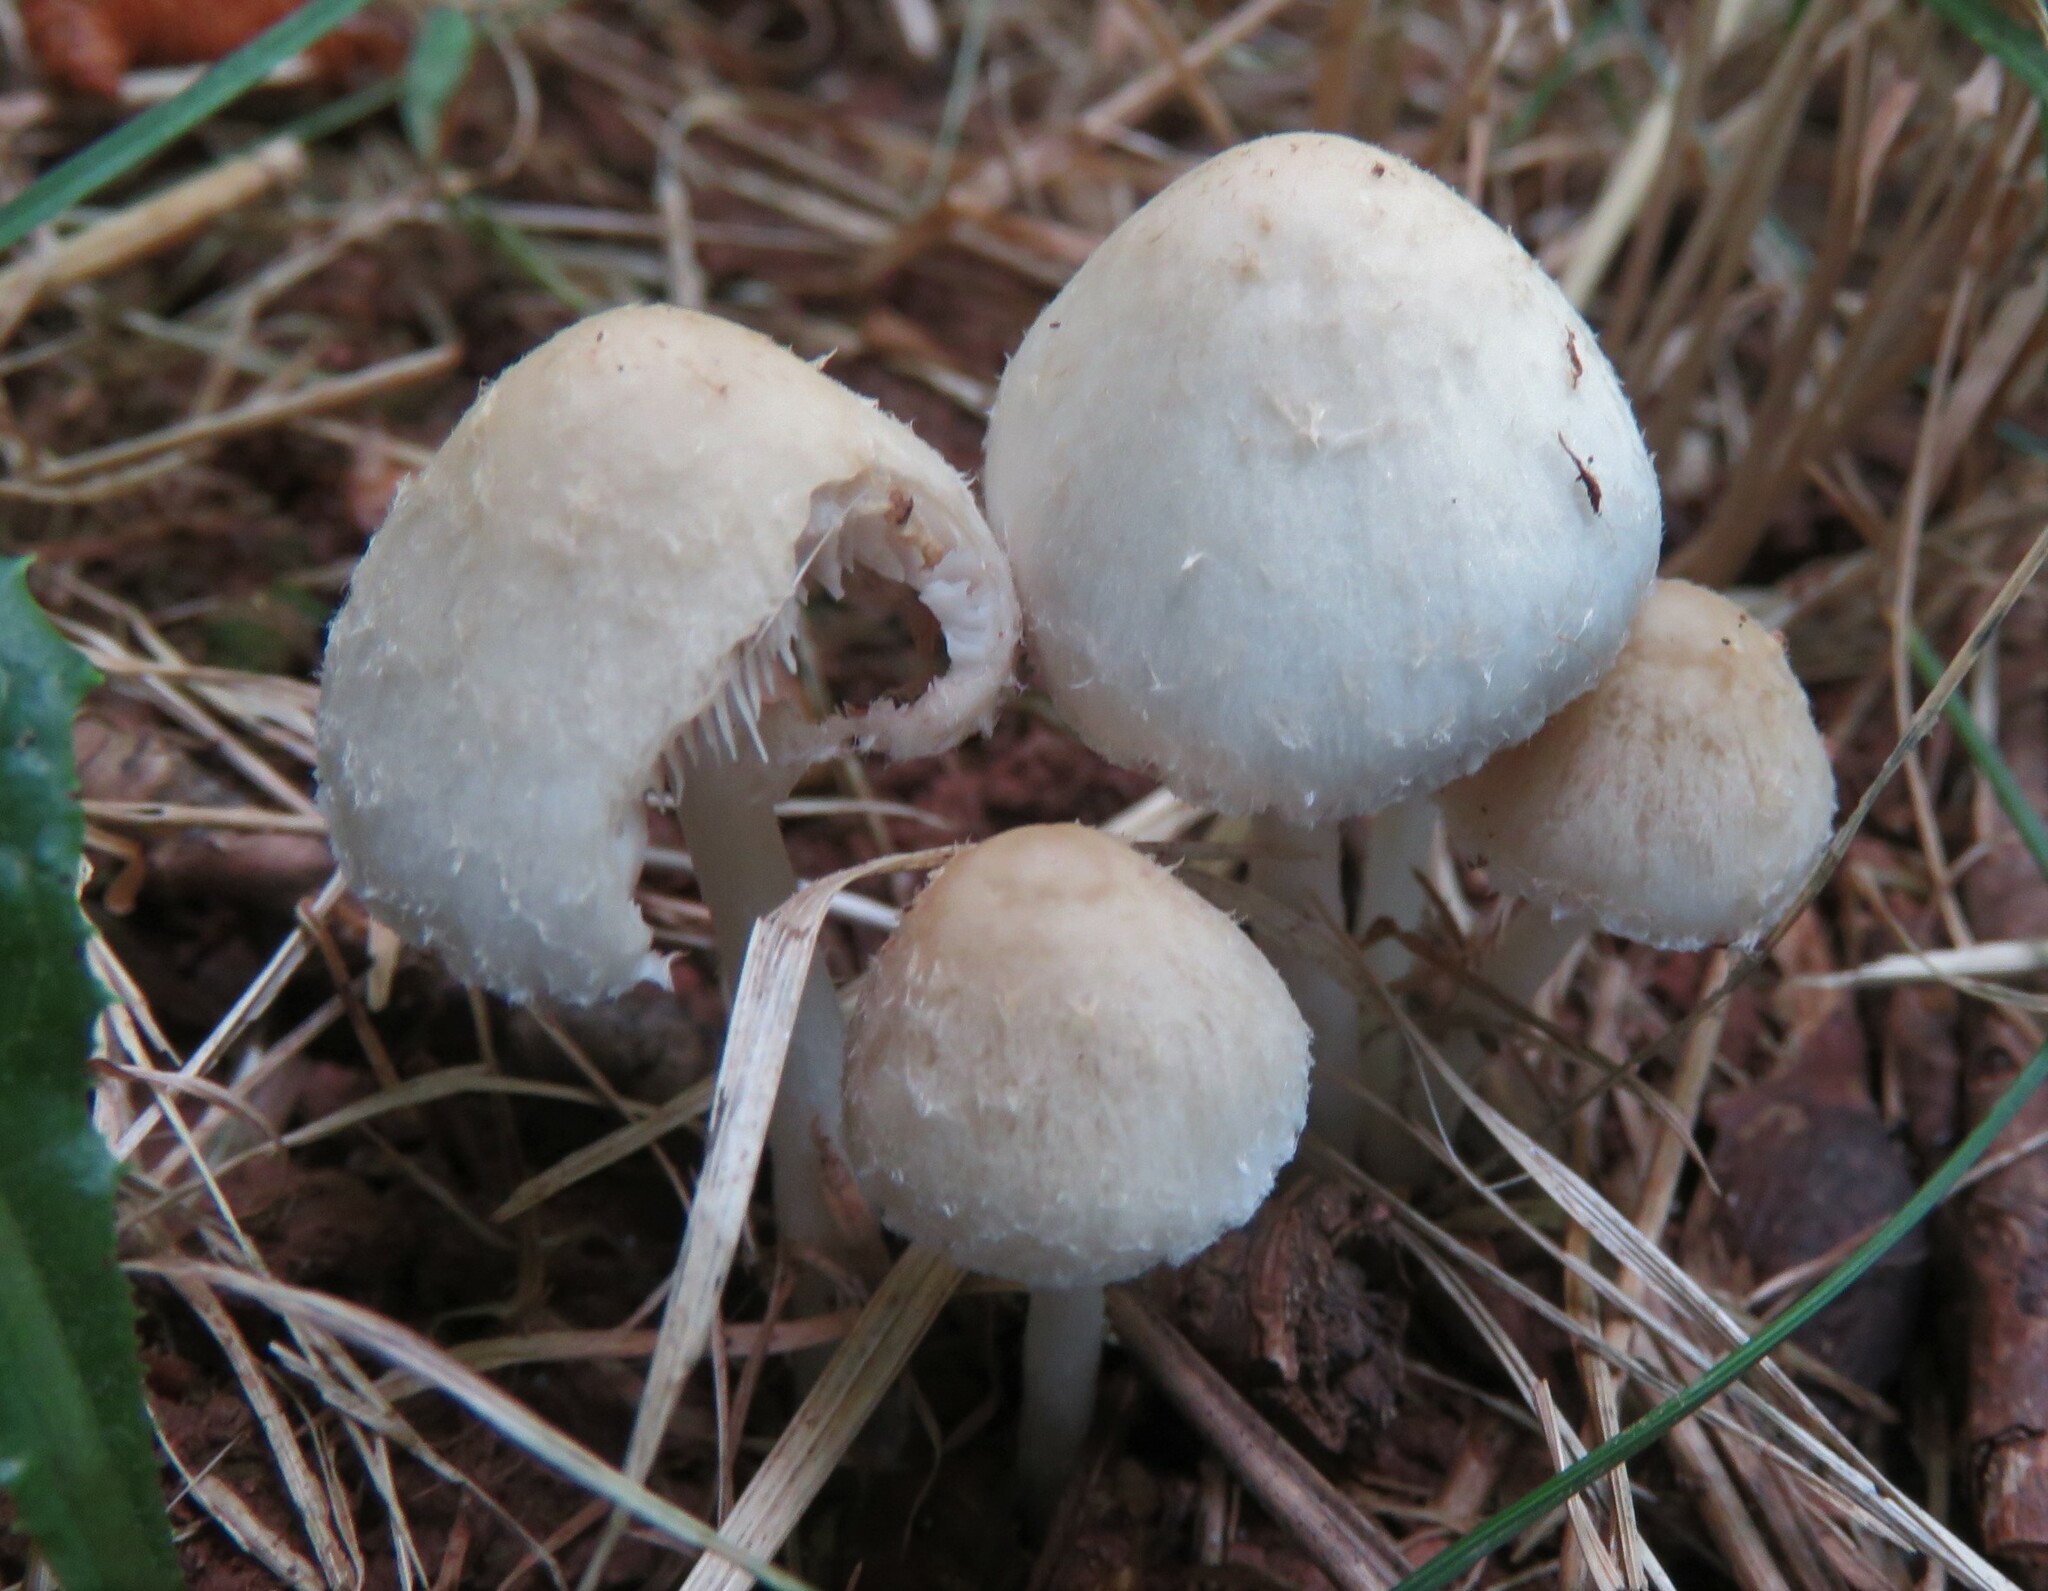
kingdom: Fungi
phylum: Basidiomycota
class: Agaricomycetes
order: Agaricales
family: Psathyrellaceae
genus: Candolleomyces
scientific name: Candolleomyces candolleanus
